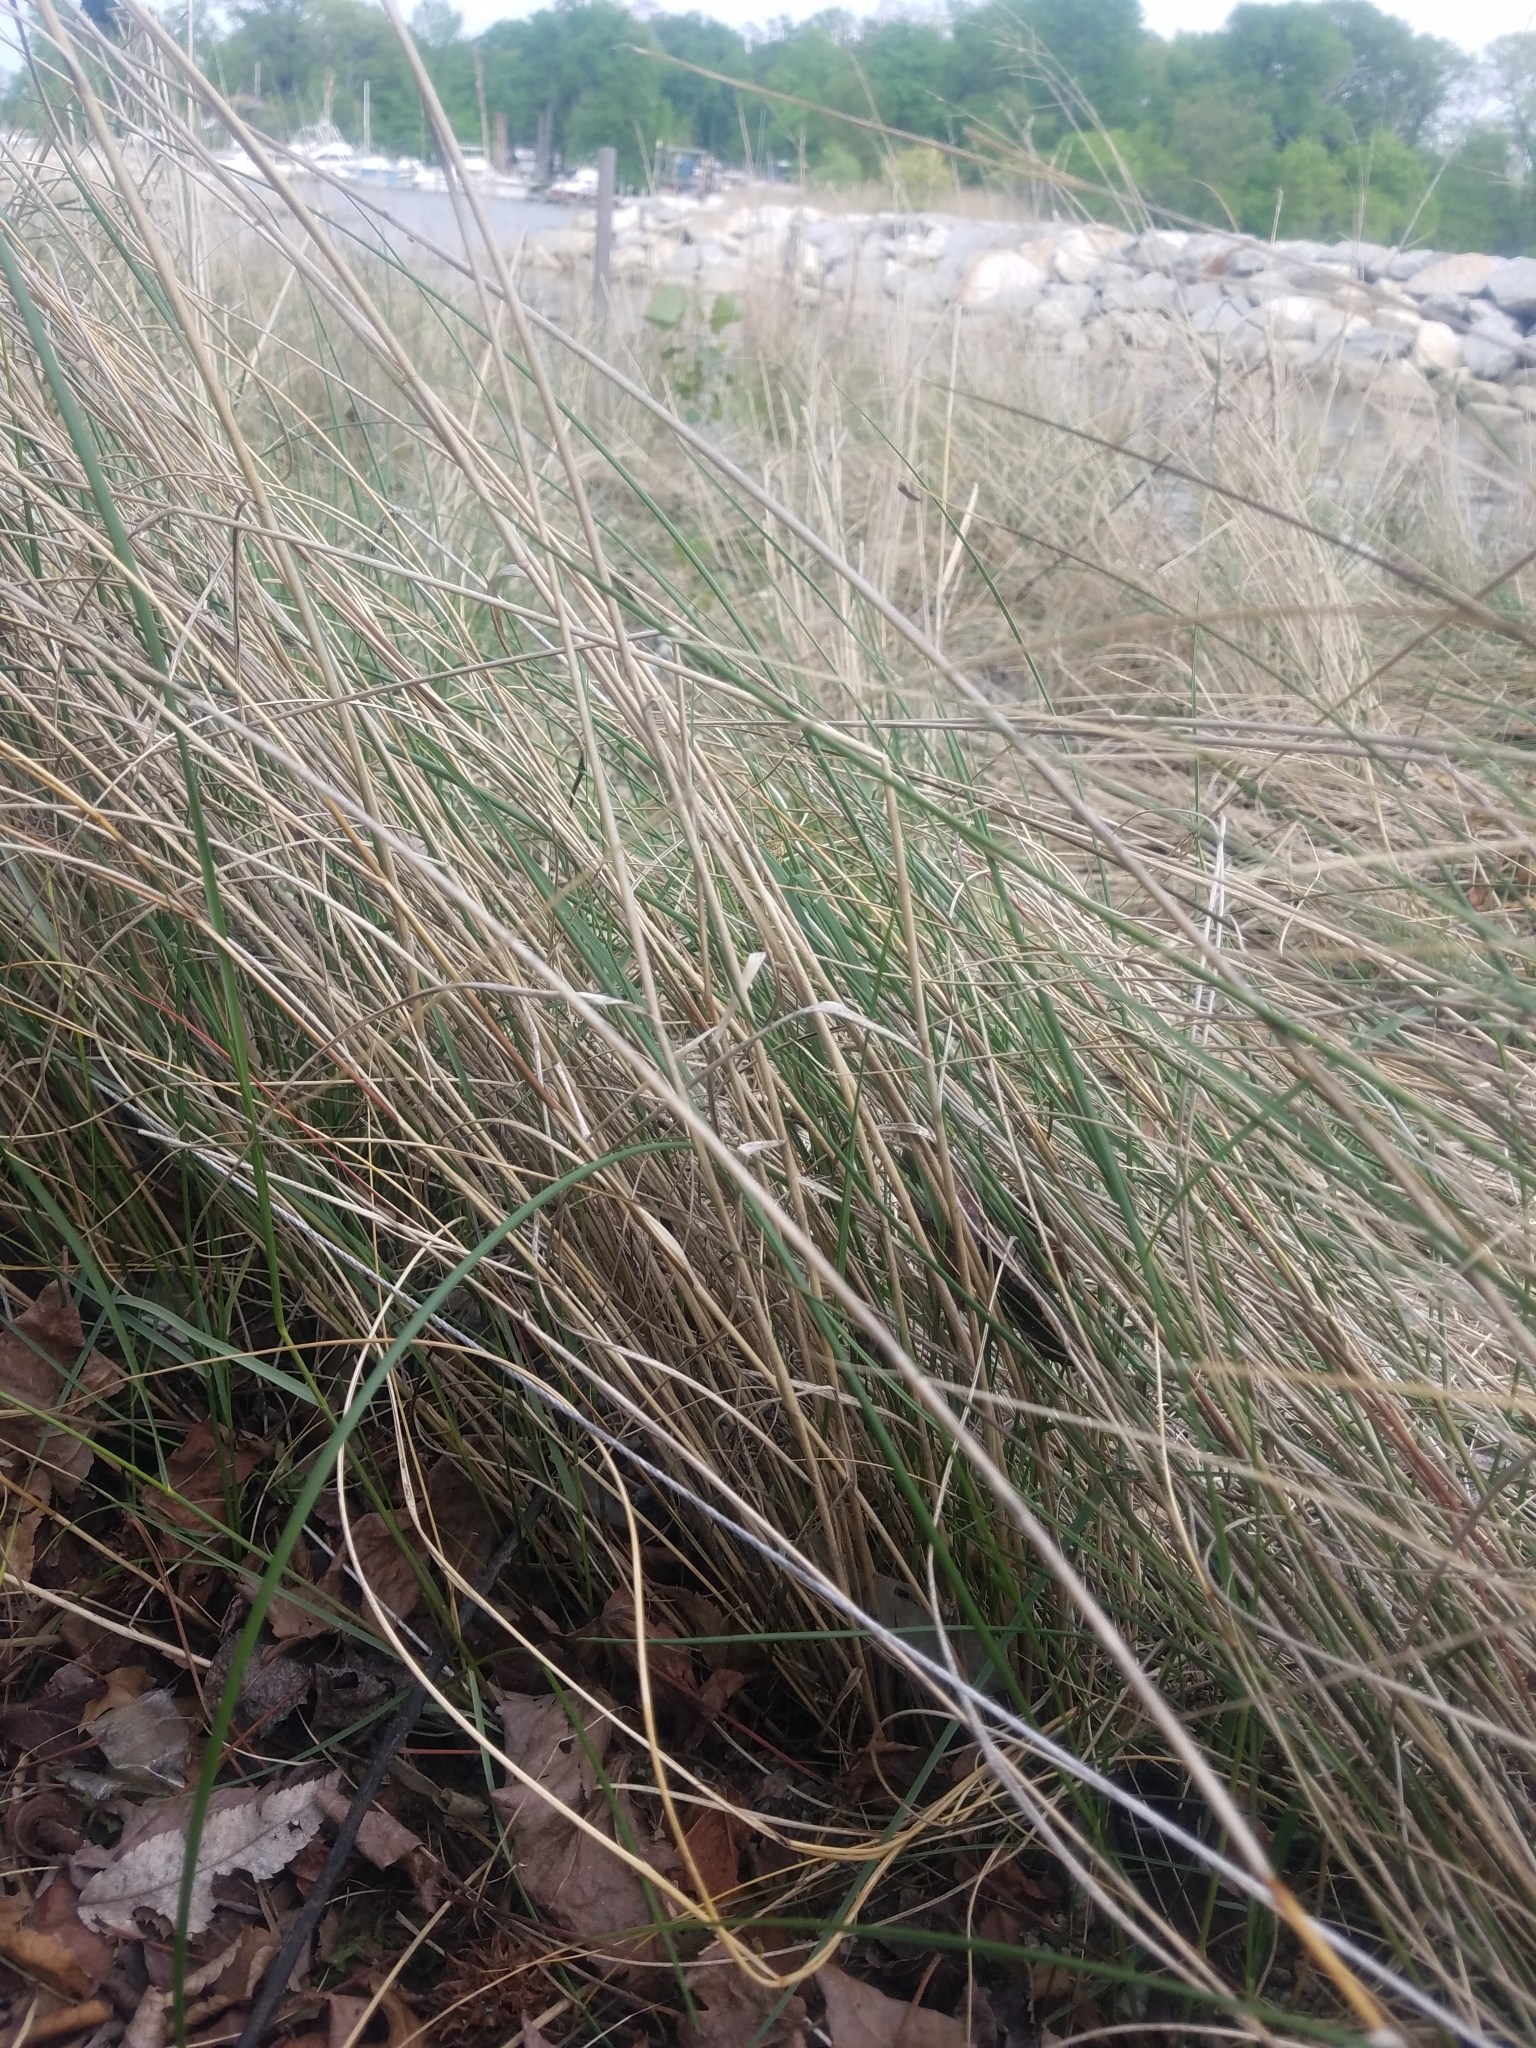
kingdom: Plantae
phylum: Tracheophyta
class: Liliopsida
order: Poales
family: Poaceae
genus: Sporobolus
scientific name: Sporobolus pumilus
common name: Highwater grass
